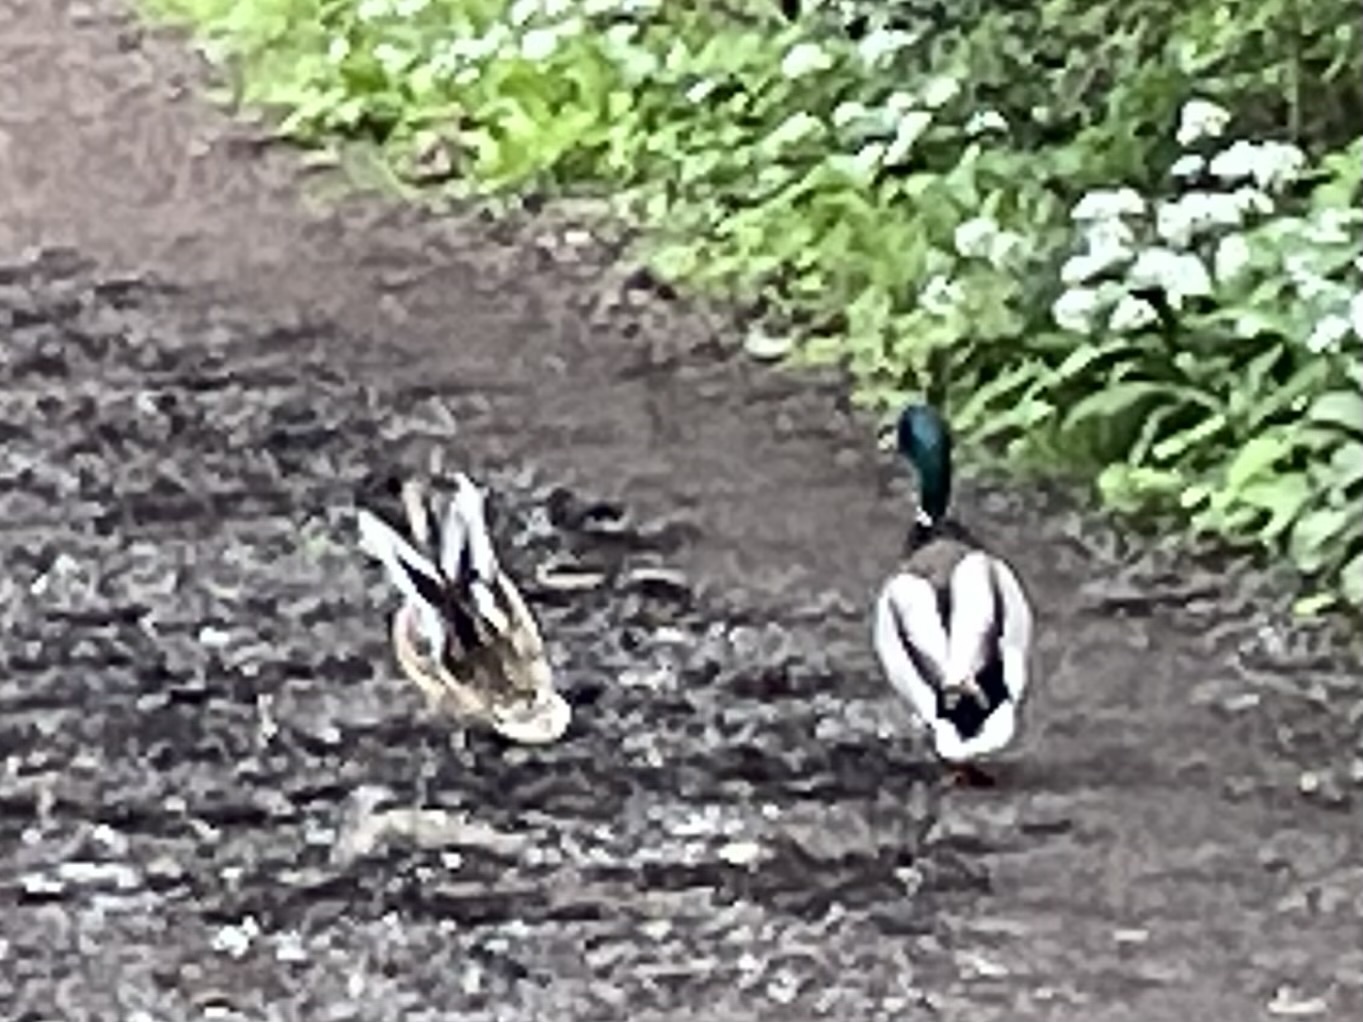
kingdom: Animalia
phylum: Chordata
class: Aves
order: Anseriformes
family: Anatidae
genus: Anas
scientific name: Anas platyrhynchos
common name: Mallard
